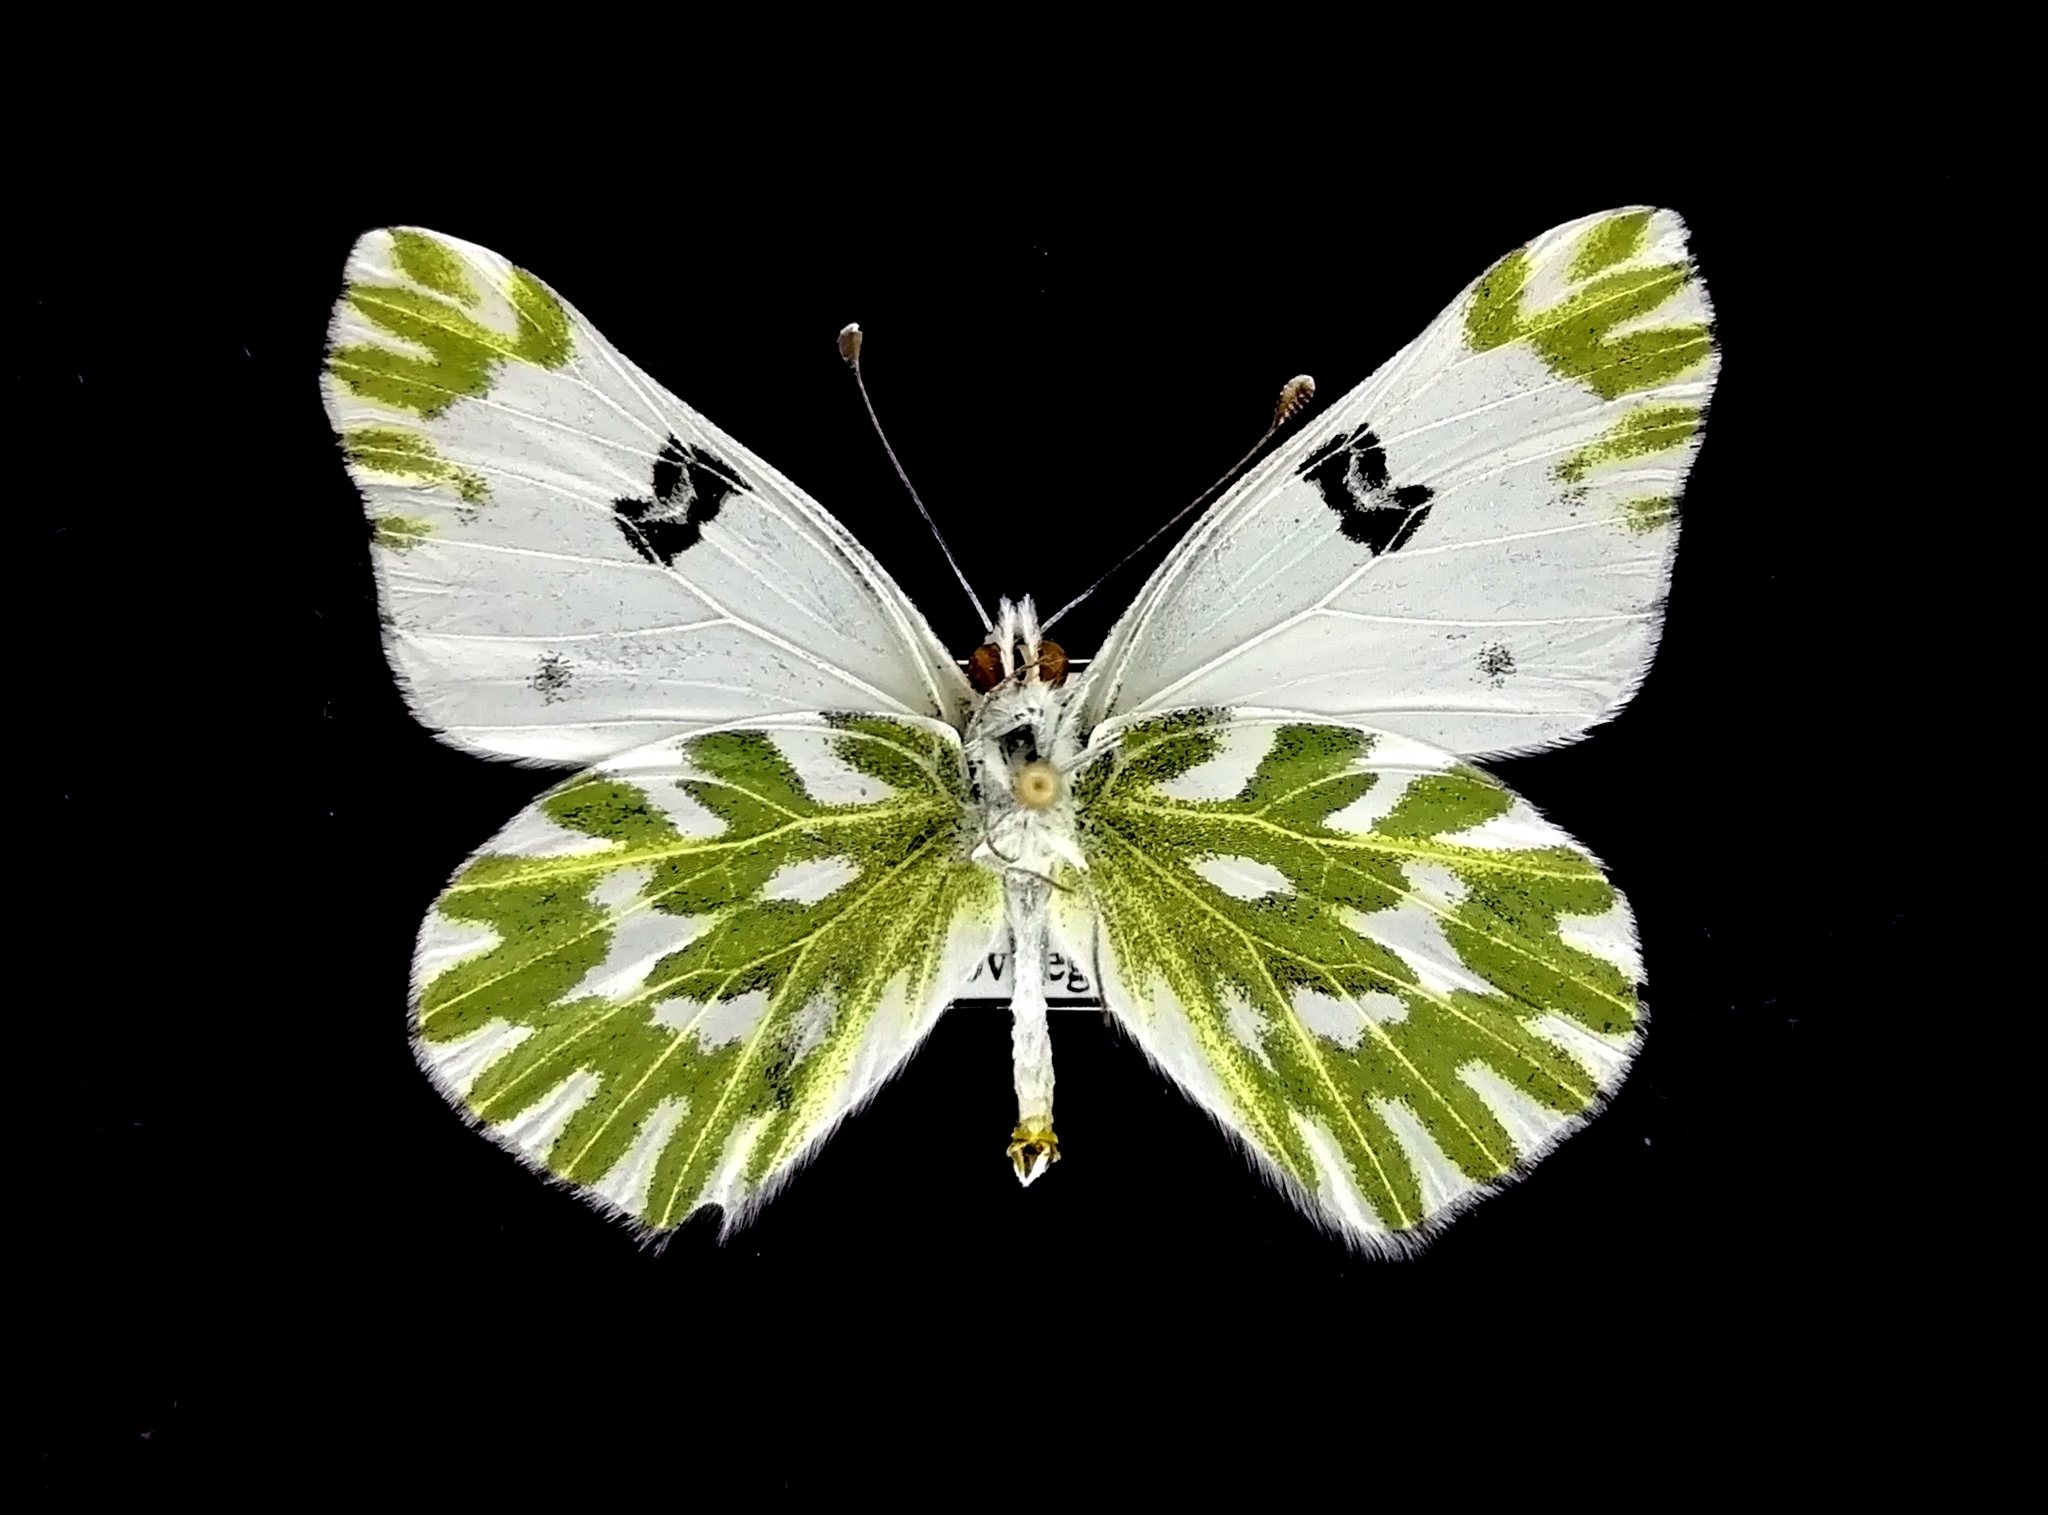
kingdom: Animalia
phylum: Arthropoda
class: Insecta
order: Lepidoptera
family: Pieridae
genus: Pontia
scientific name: Pontia chloridice
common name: Small bath white
